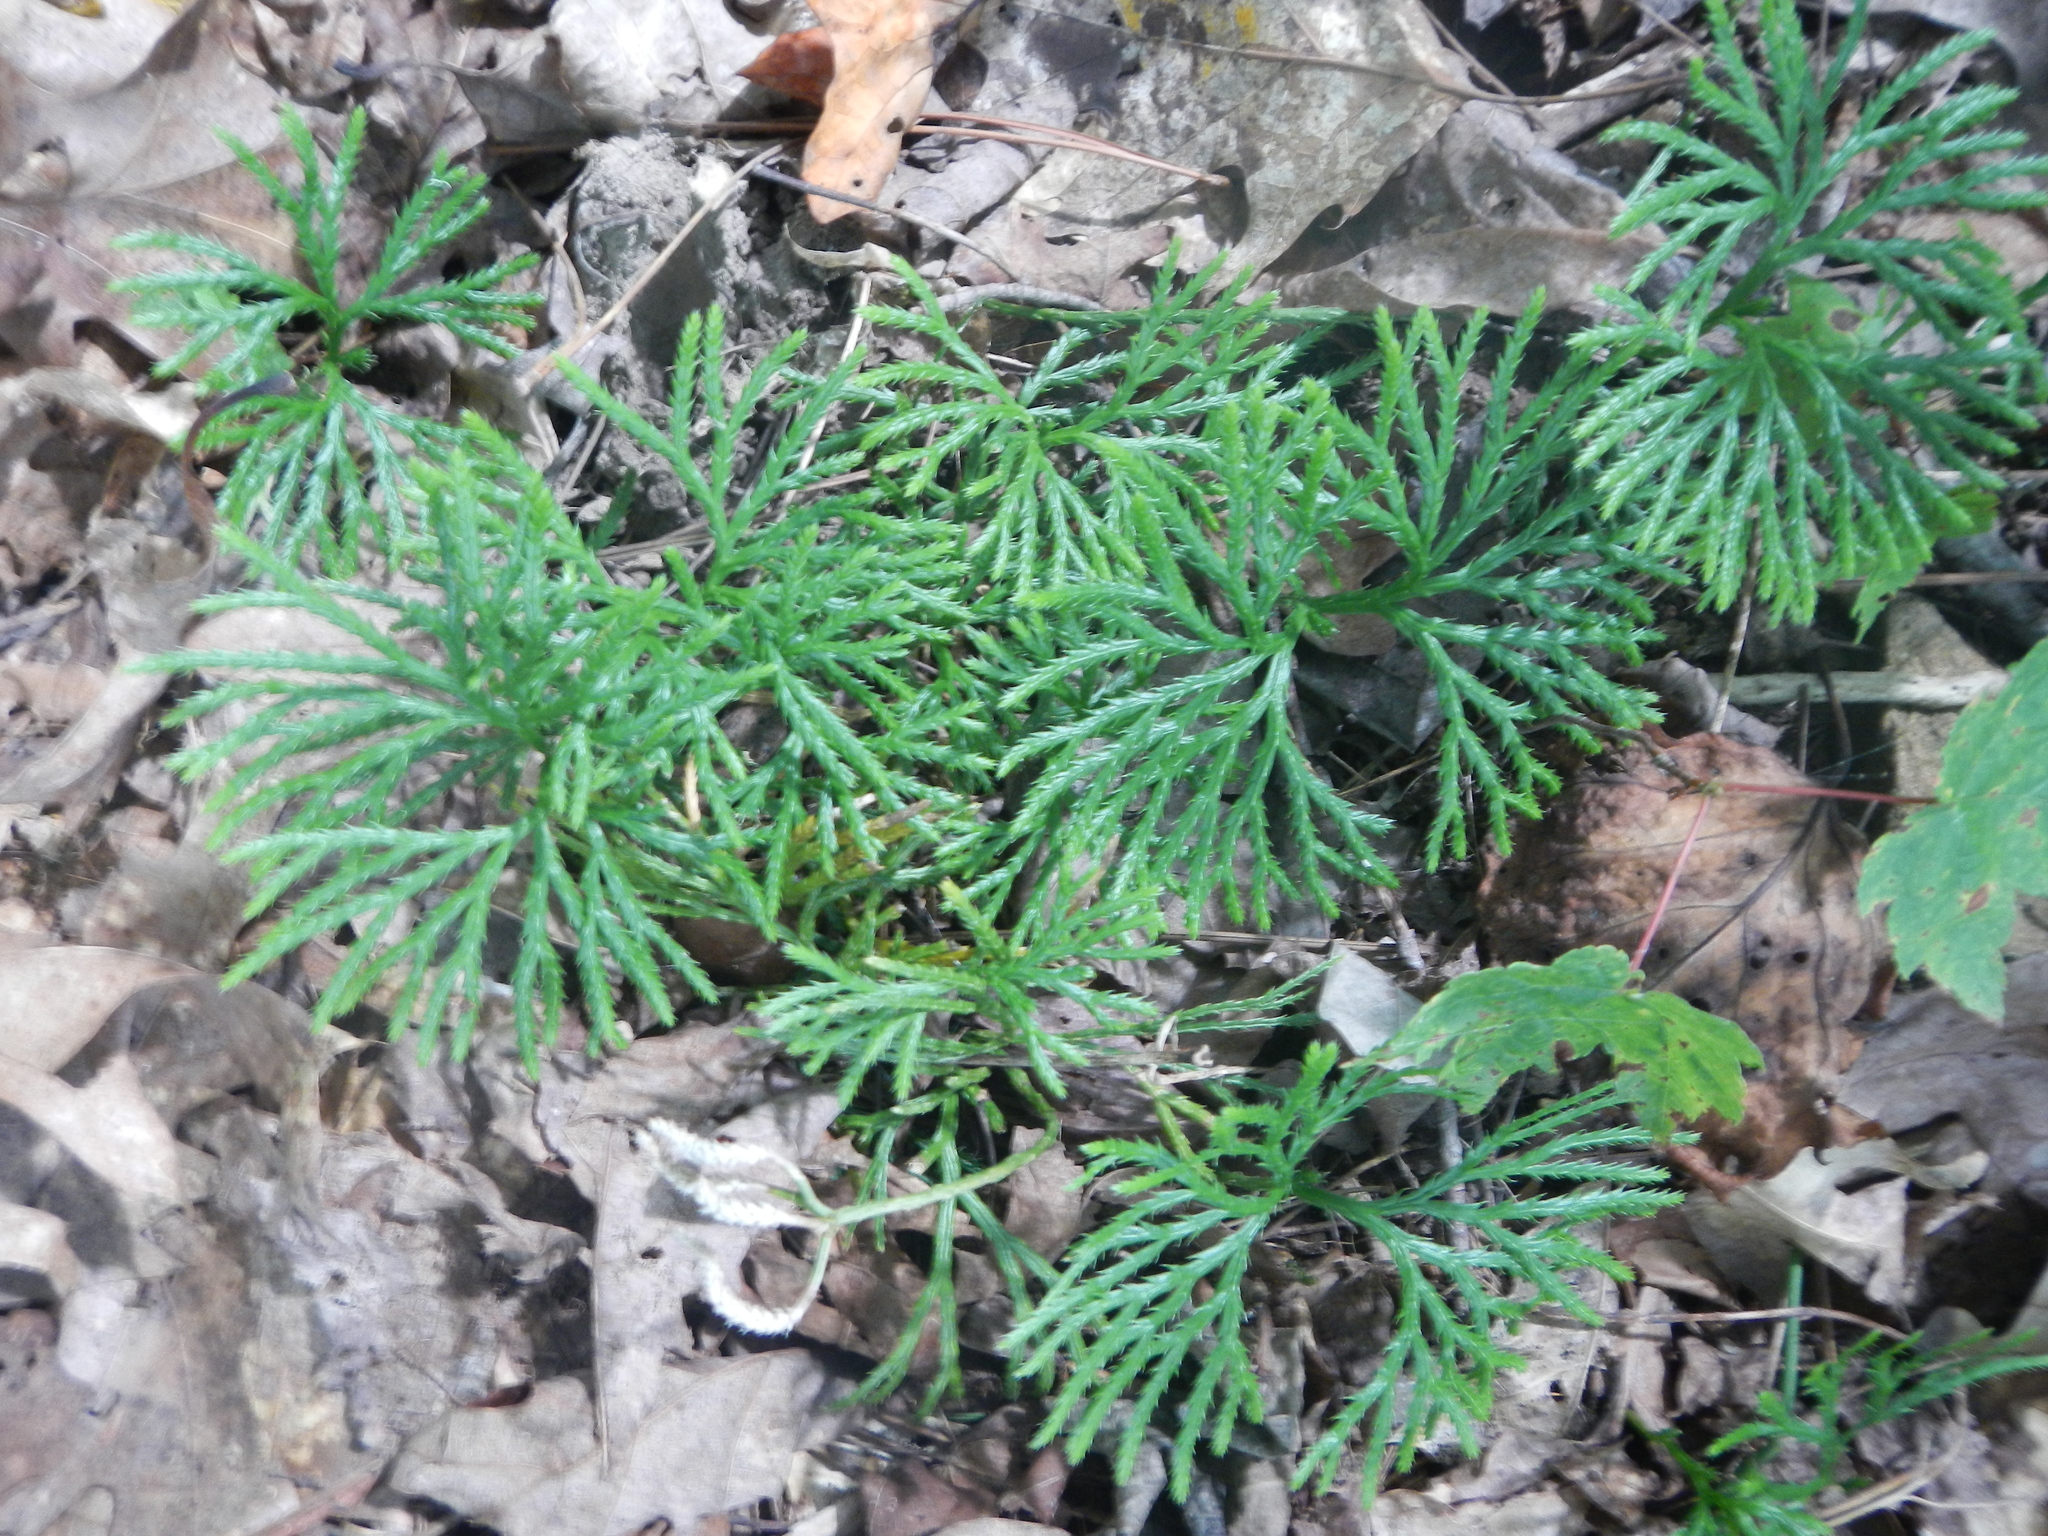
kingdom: Plantae
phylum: Tracheophyta
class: Lycopodiopsida
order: Lycopodiales
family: Lycopodiaceae
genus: Diphasiastrum
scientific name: Diphasiastrum digitatum
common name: Southern running-pine
